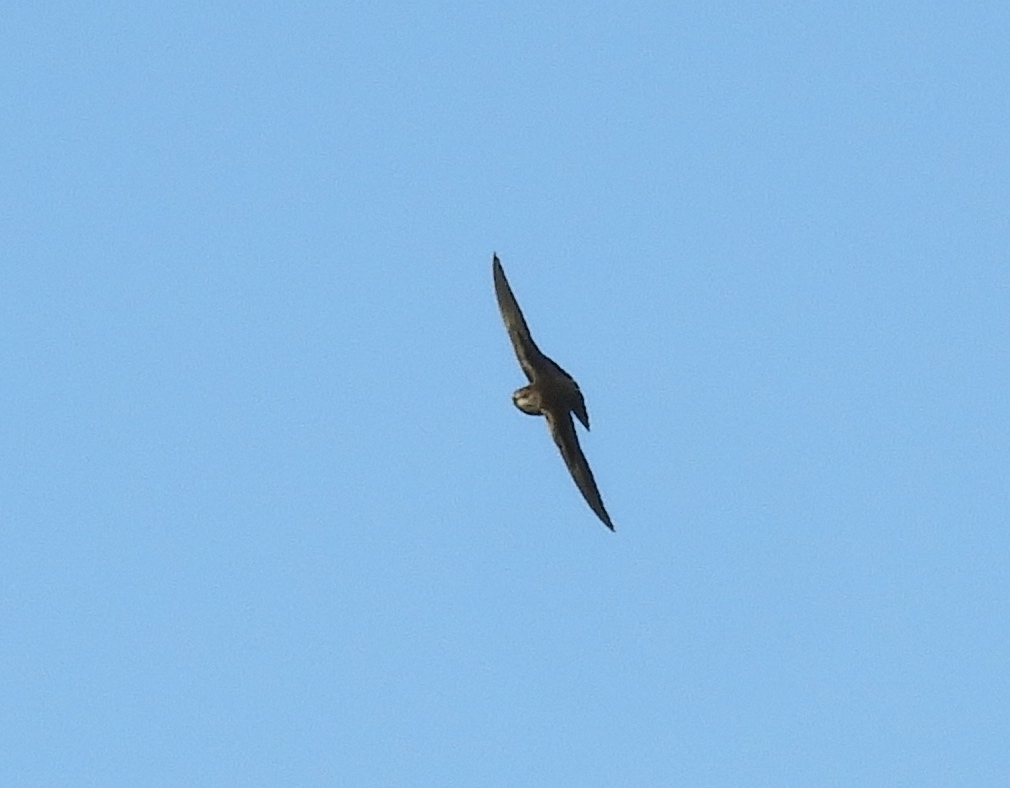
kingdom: Animalia
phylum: Chordata
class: Aves
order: Passeriformes
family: Hirundinidae
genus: Stelgidopteryx
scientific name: Stelgidopteryx serripennis
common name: Northern rough-winged swallow
